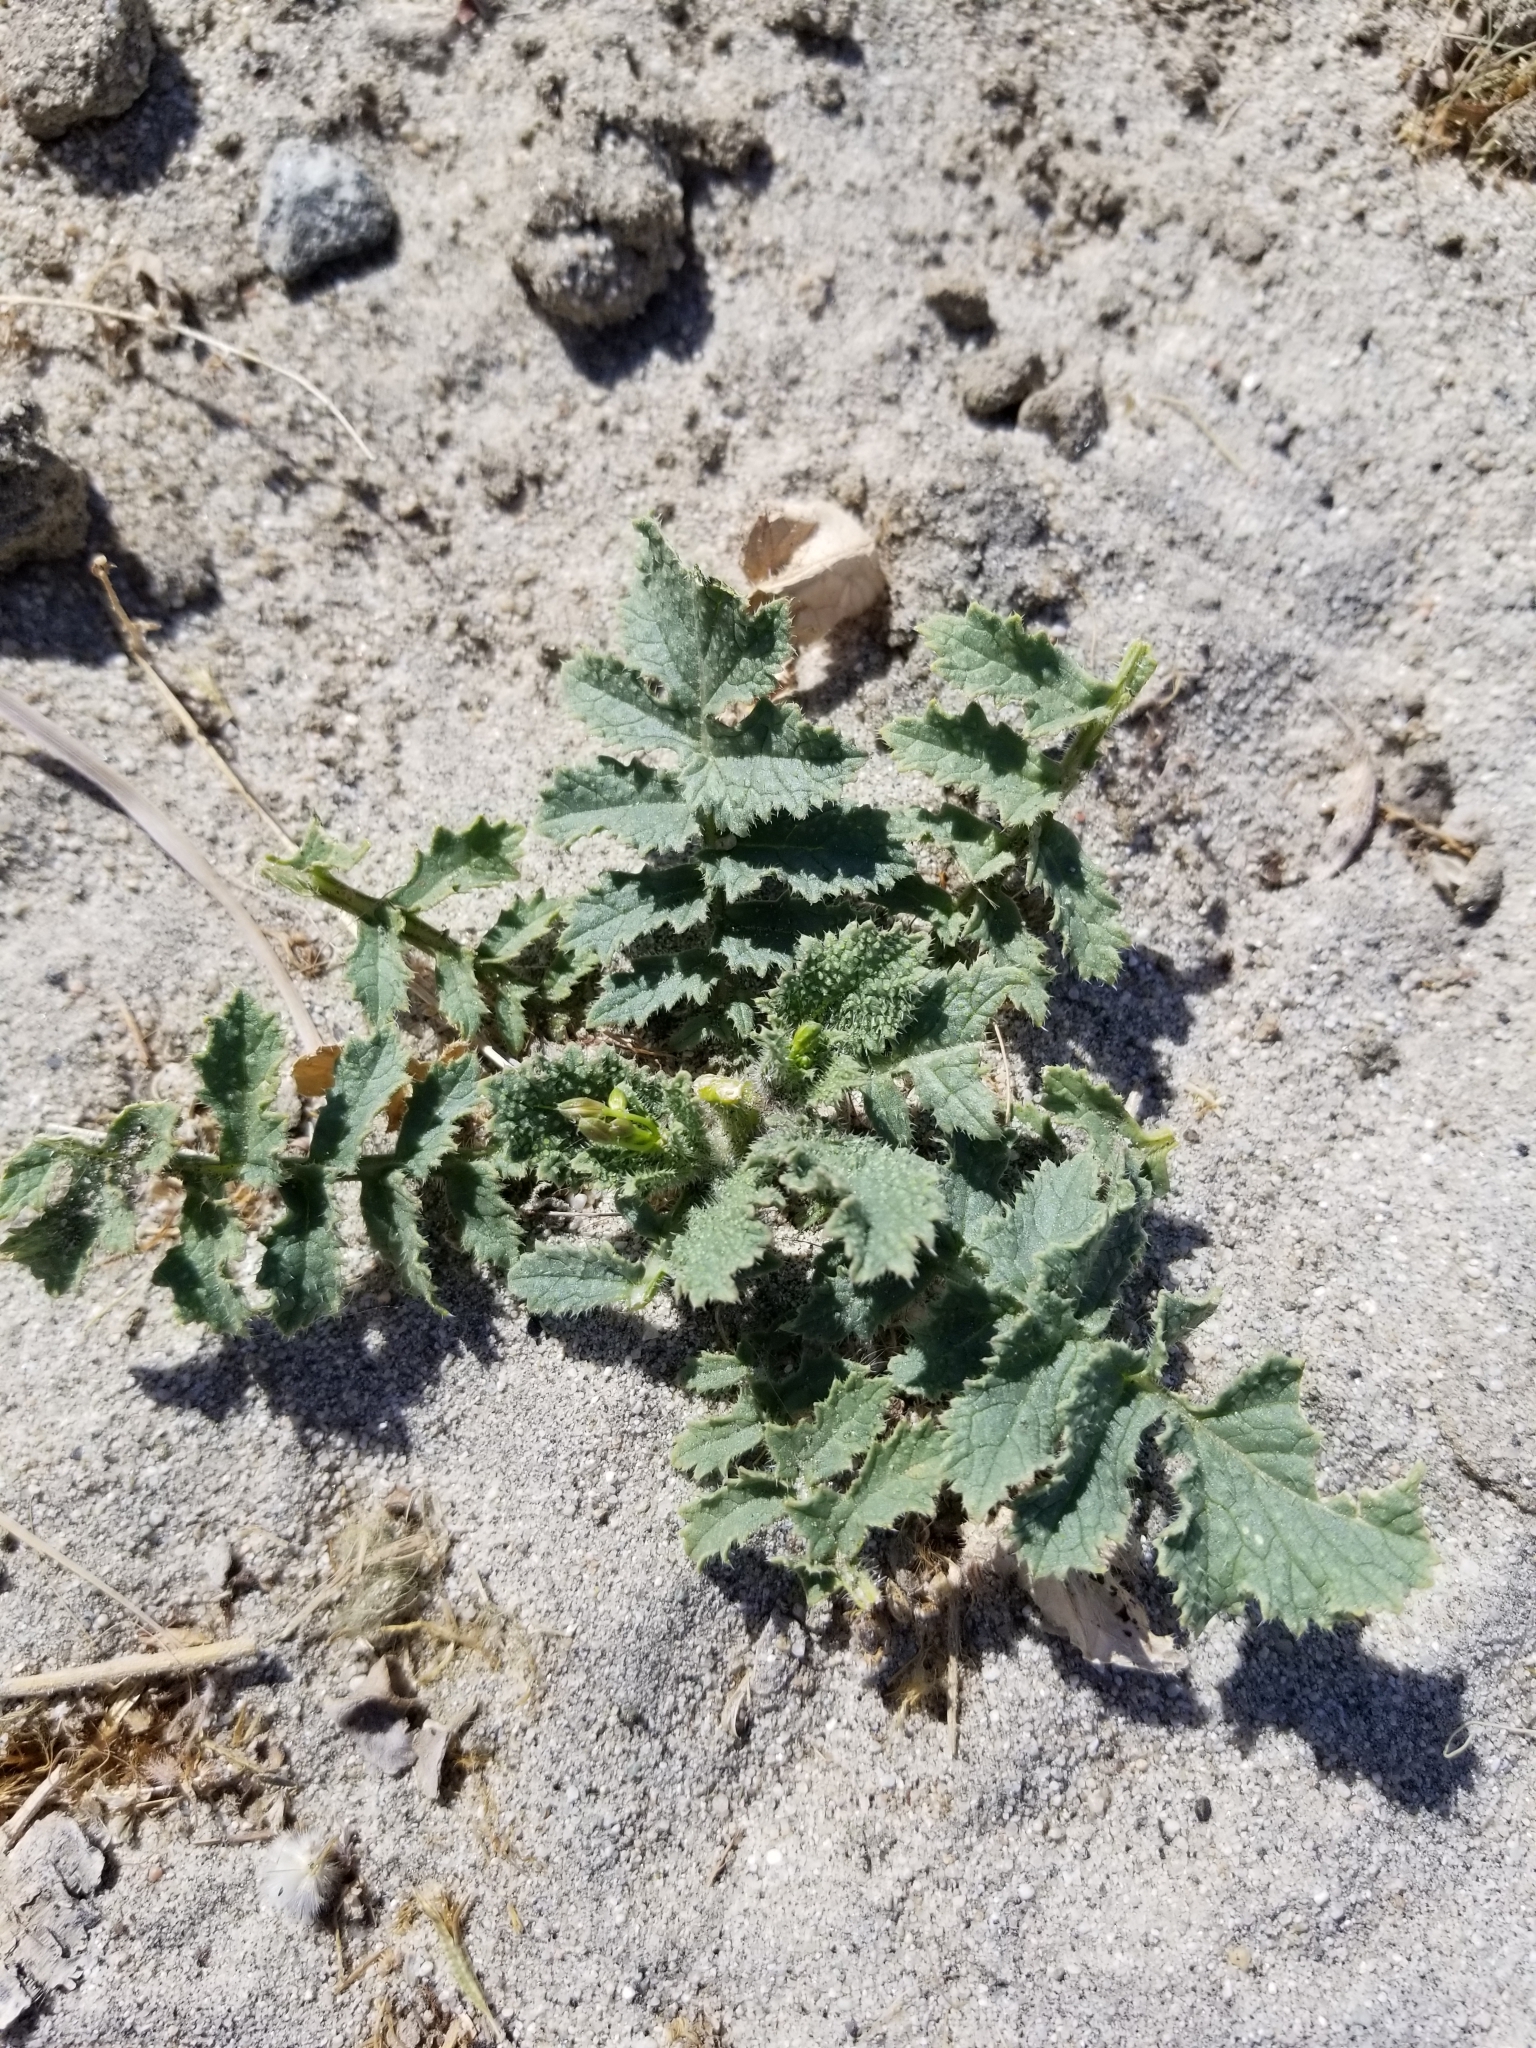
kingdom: Plantae
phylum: Tracheophyta
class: Magnoliopsida
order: Brassicales
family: Brassicaceae
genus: Brassica
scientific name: Brassica tournefortii
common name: Pale cabbage
